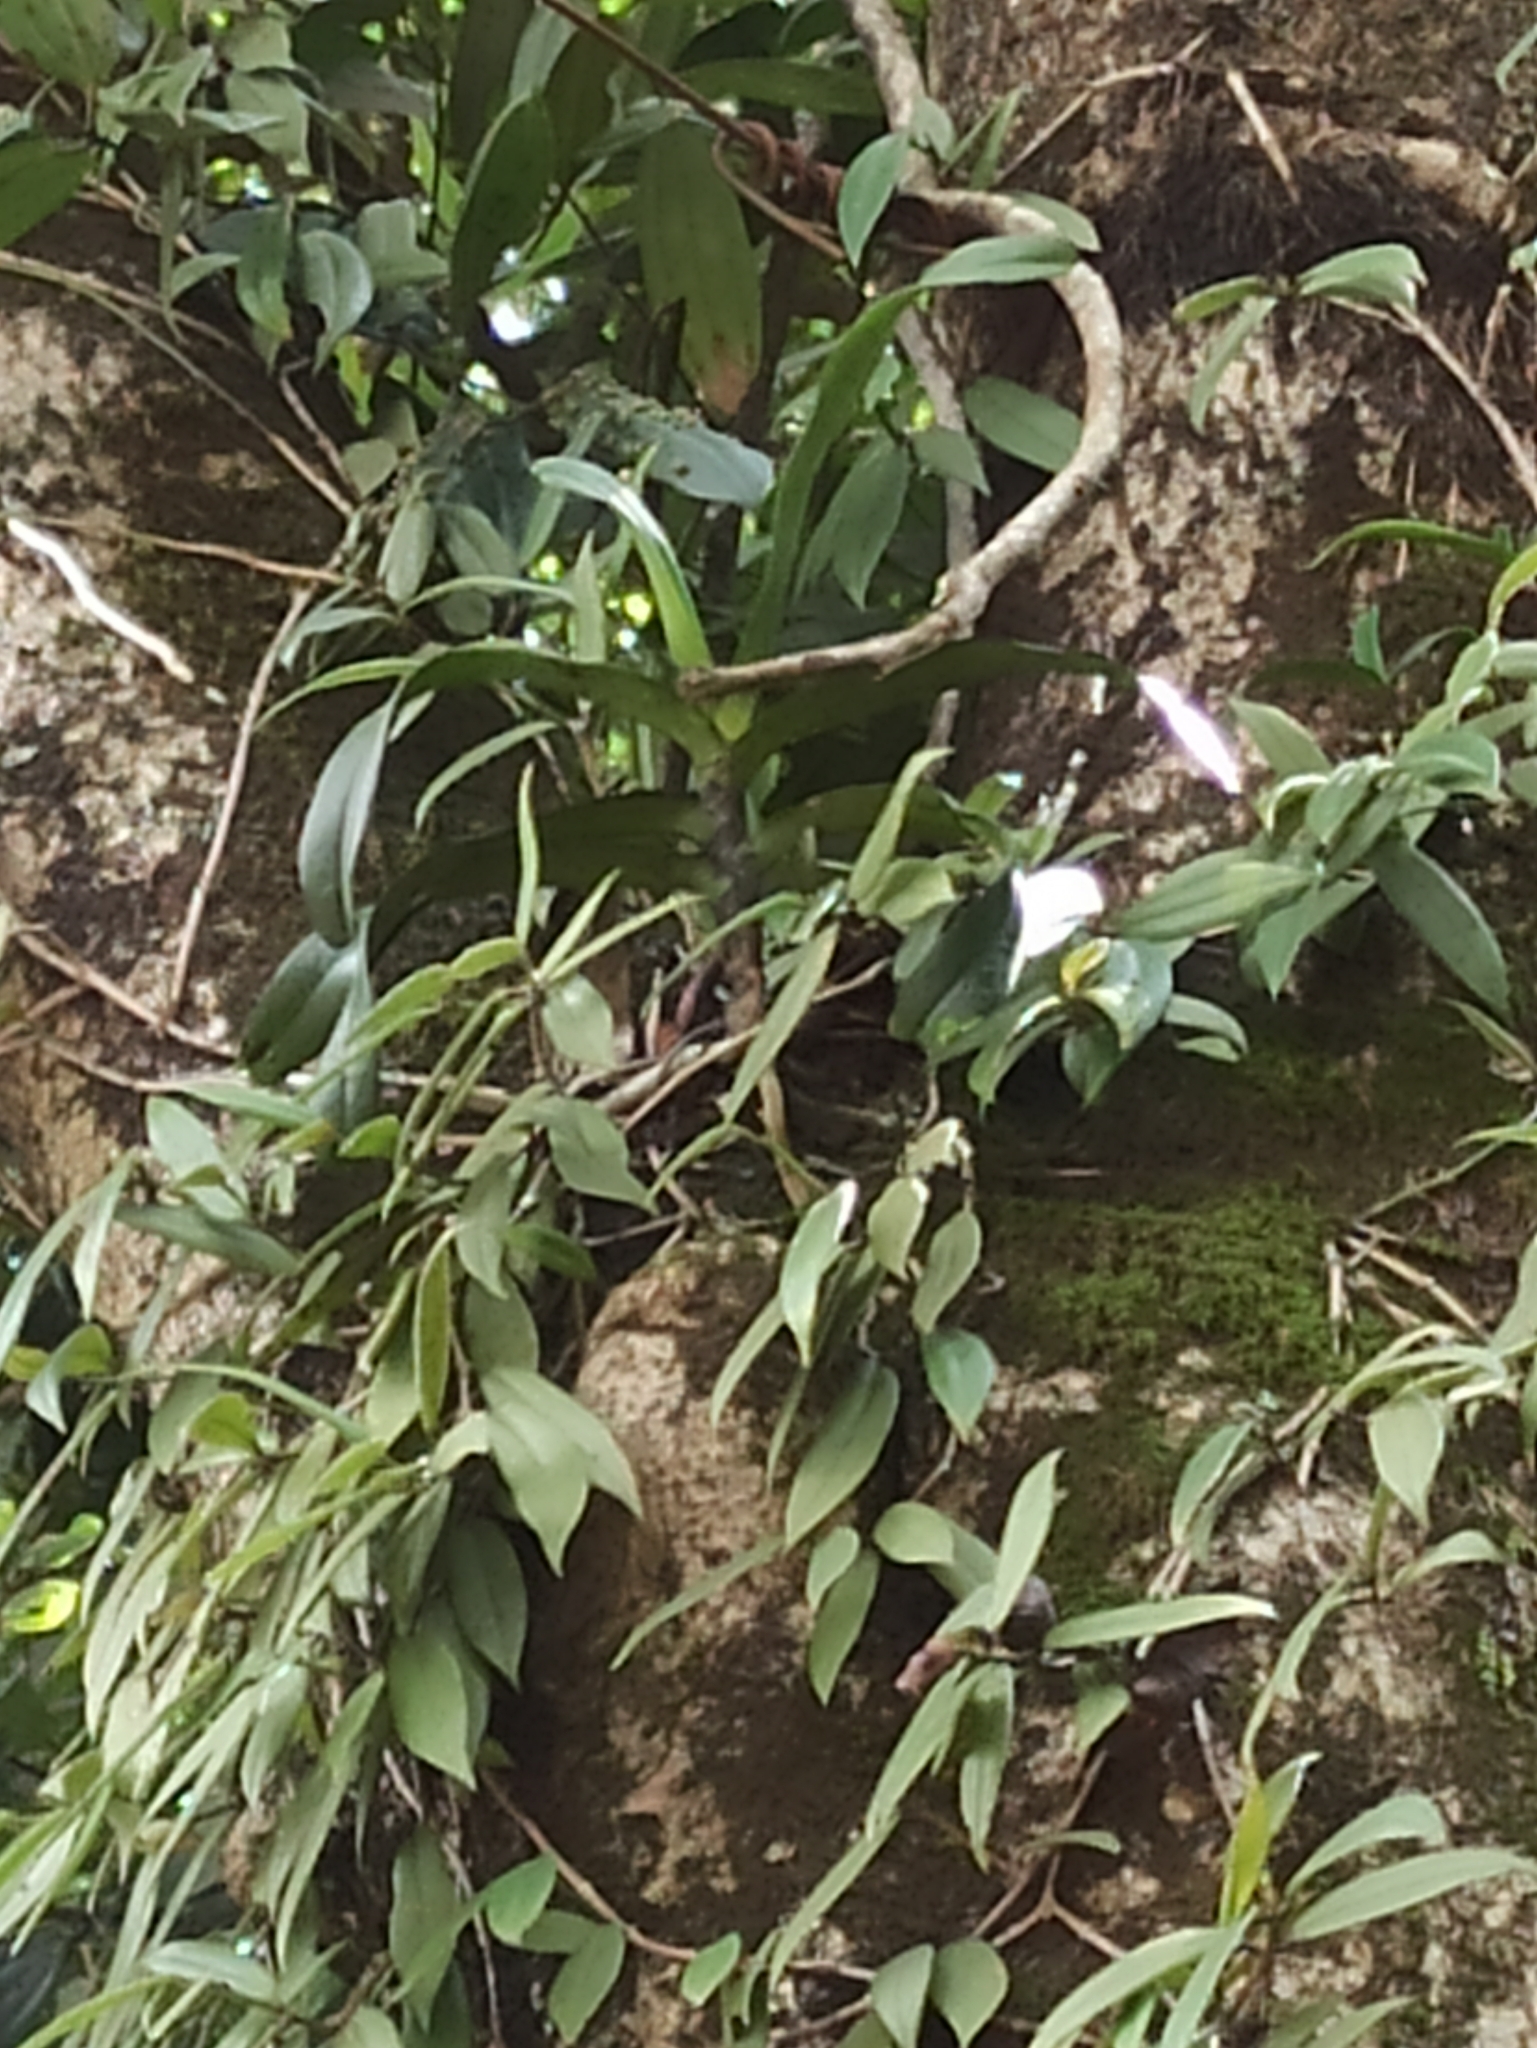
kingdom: Plantae
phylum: Tracheophyta
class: Magnoliopsida
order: Lamiales
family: Gesneriaceae
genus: Aeschynanthus
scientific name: Aeschynanthus perrottetii
